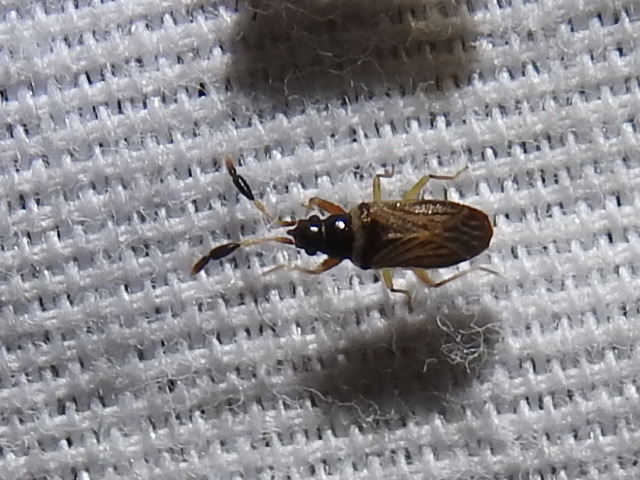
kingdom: Animalia
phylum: Arthropoda
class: Insecta
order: Hemiptera
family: Rhyparochromidae
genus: Ptochiomera
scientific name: Ptochiomera nodosa
